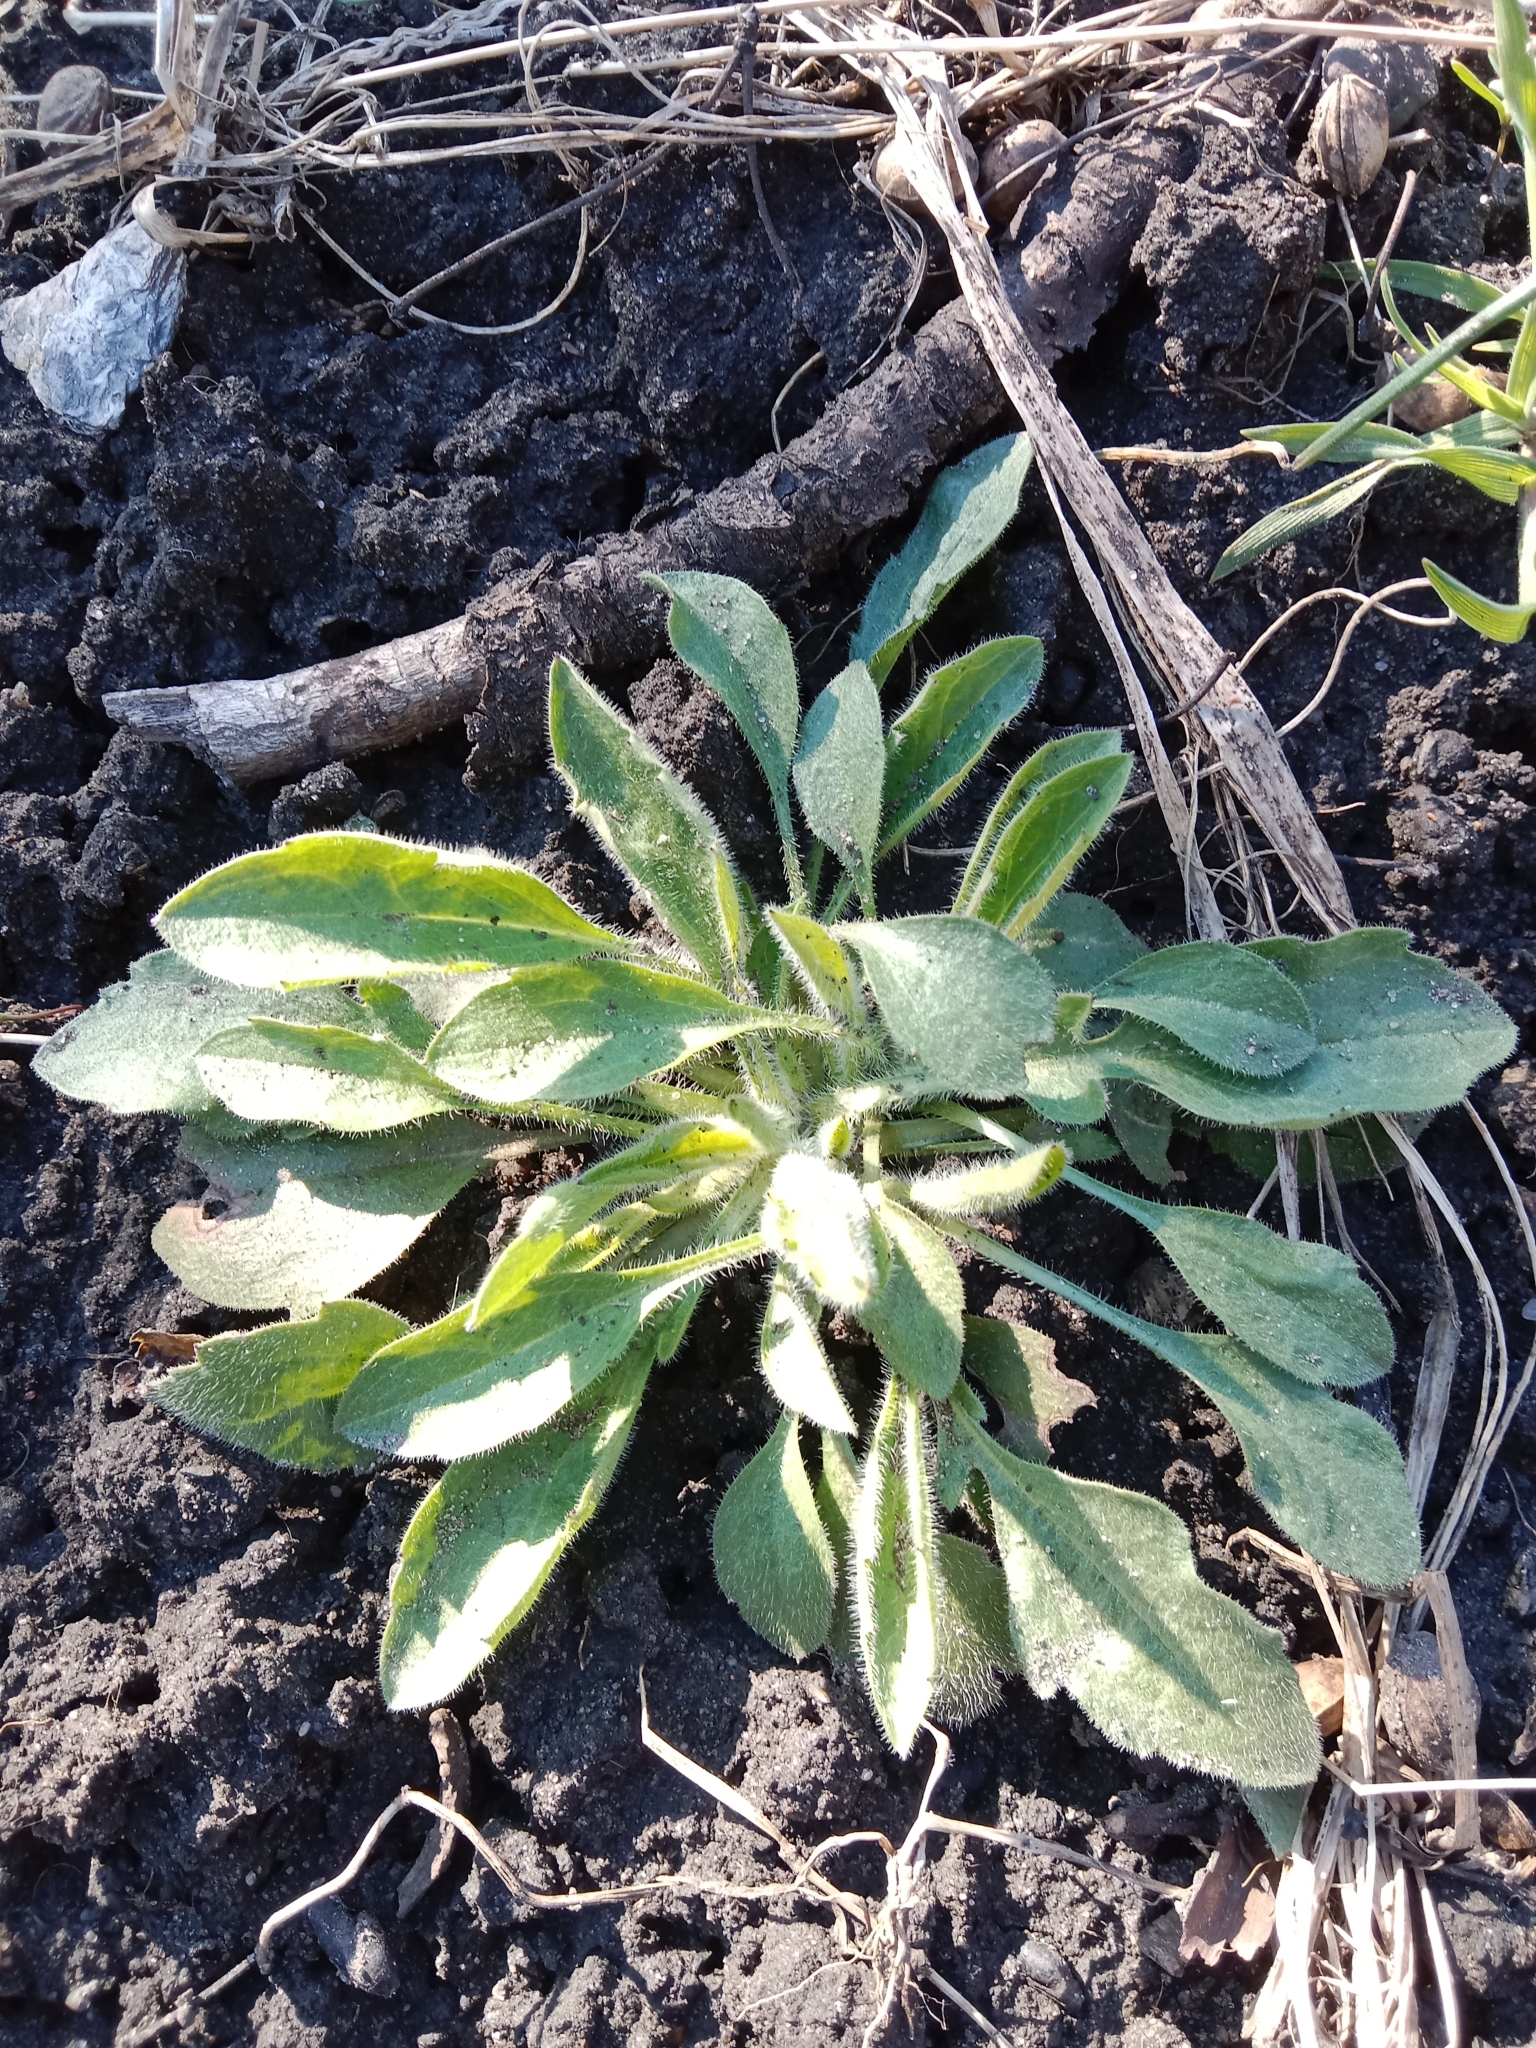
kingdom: Plantae
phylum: Tracheophyta
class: Magnoliopsida
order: Asterales
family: Asteraceae
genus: Erigeron
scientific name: Erigeron canadensis
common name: Canadian fleabane
